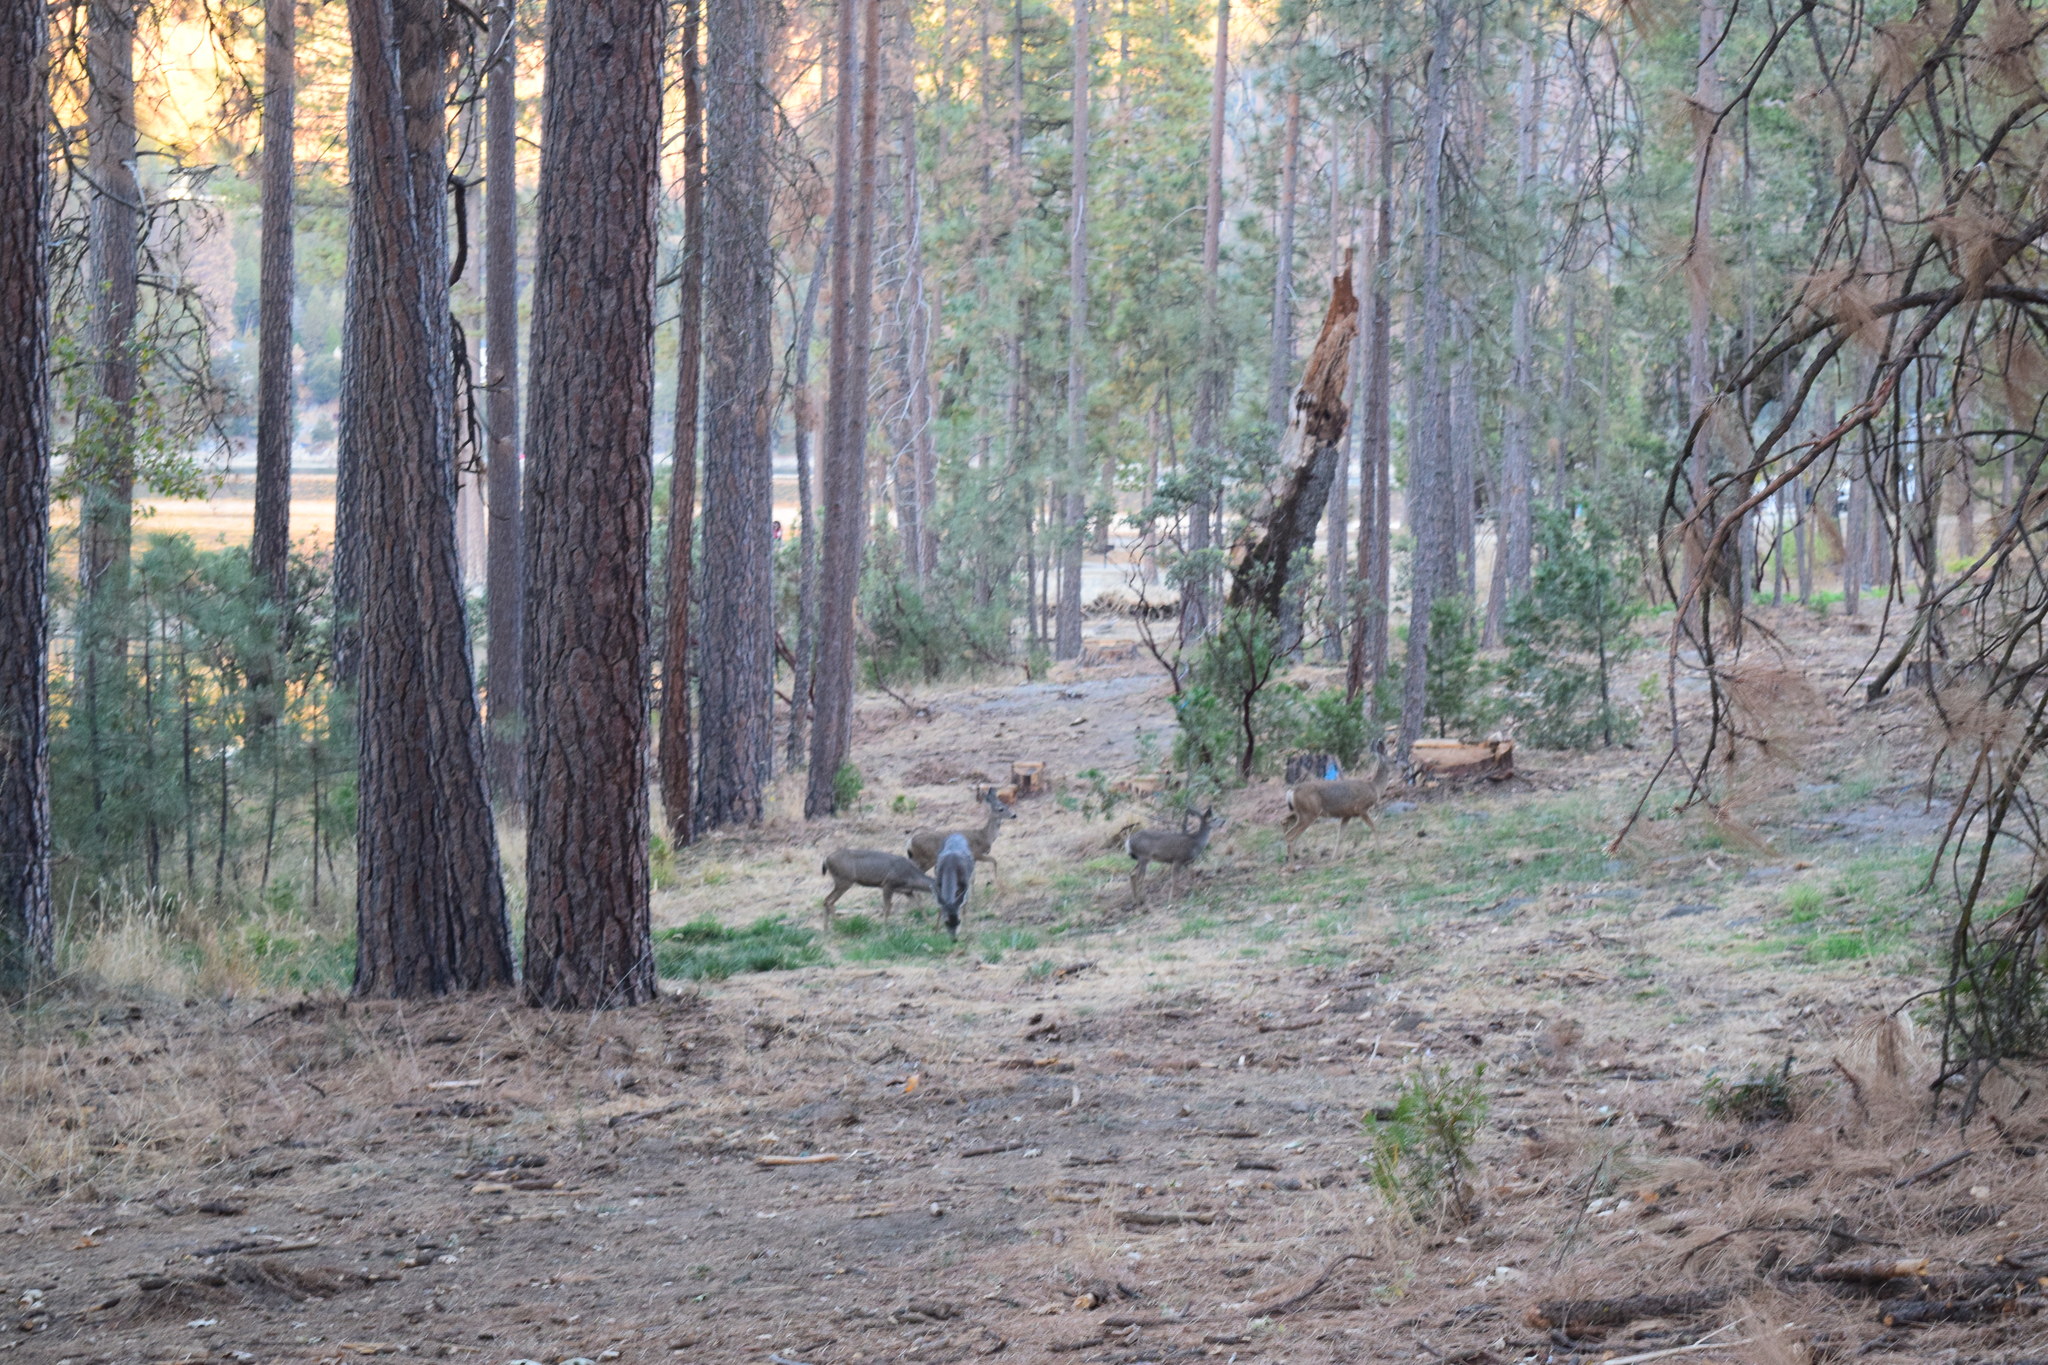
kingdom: Animalia
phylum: Chordata
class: Mammalia
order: Artiodactyla
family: Cervidae
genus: Odocoileus
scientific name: Odocoileus hemionus
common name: Mule deer
